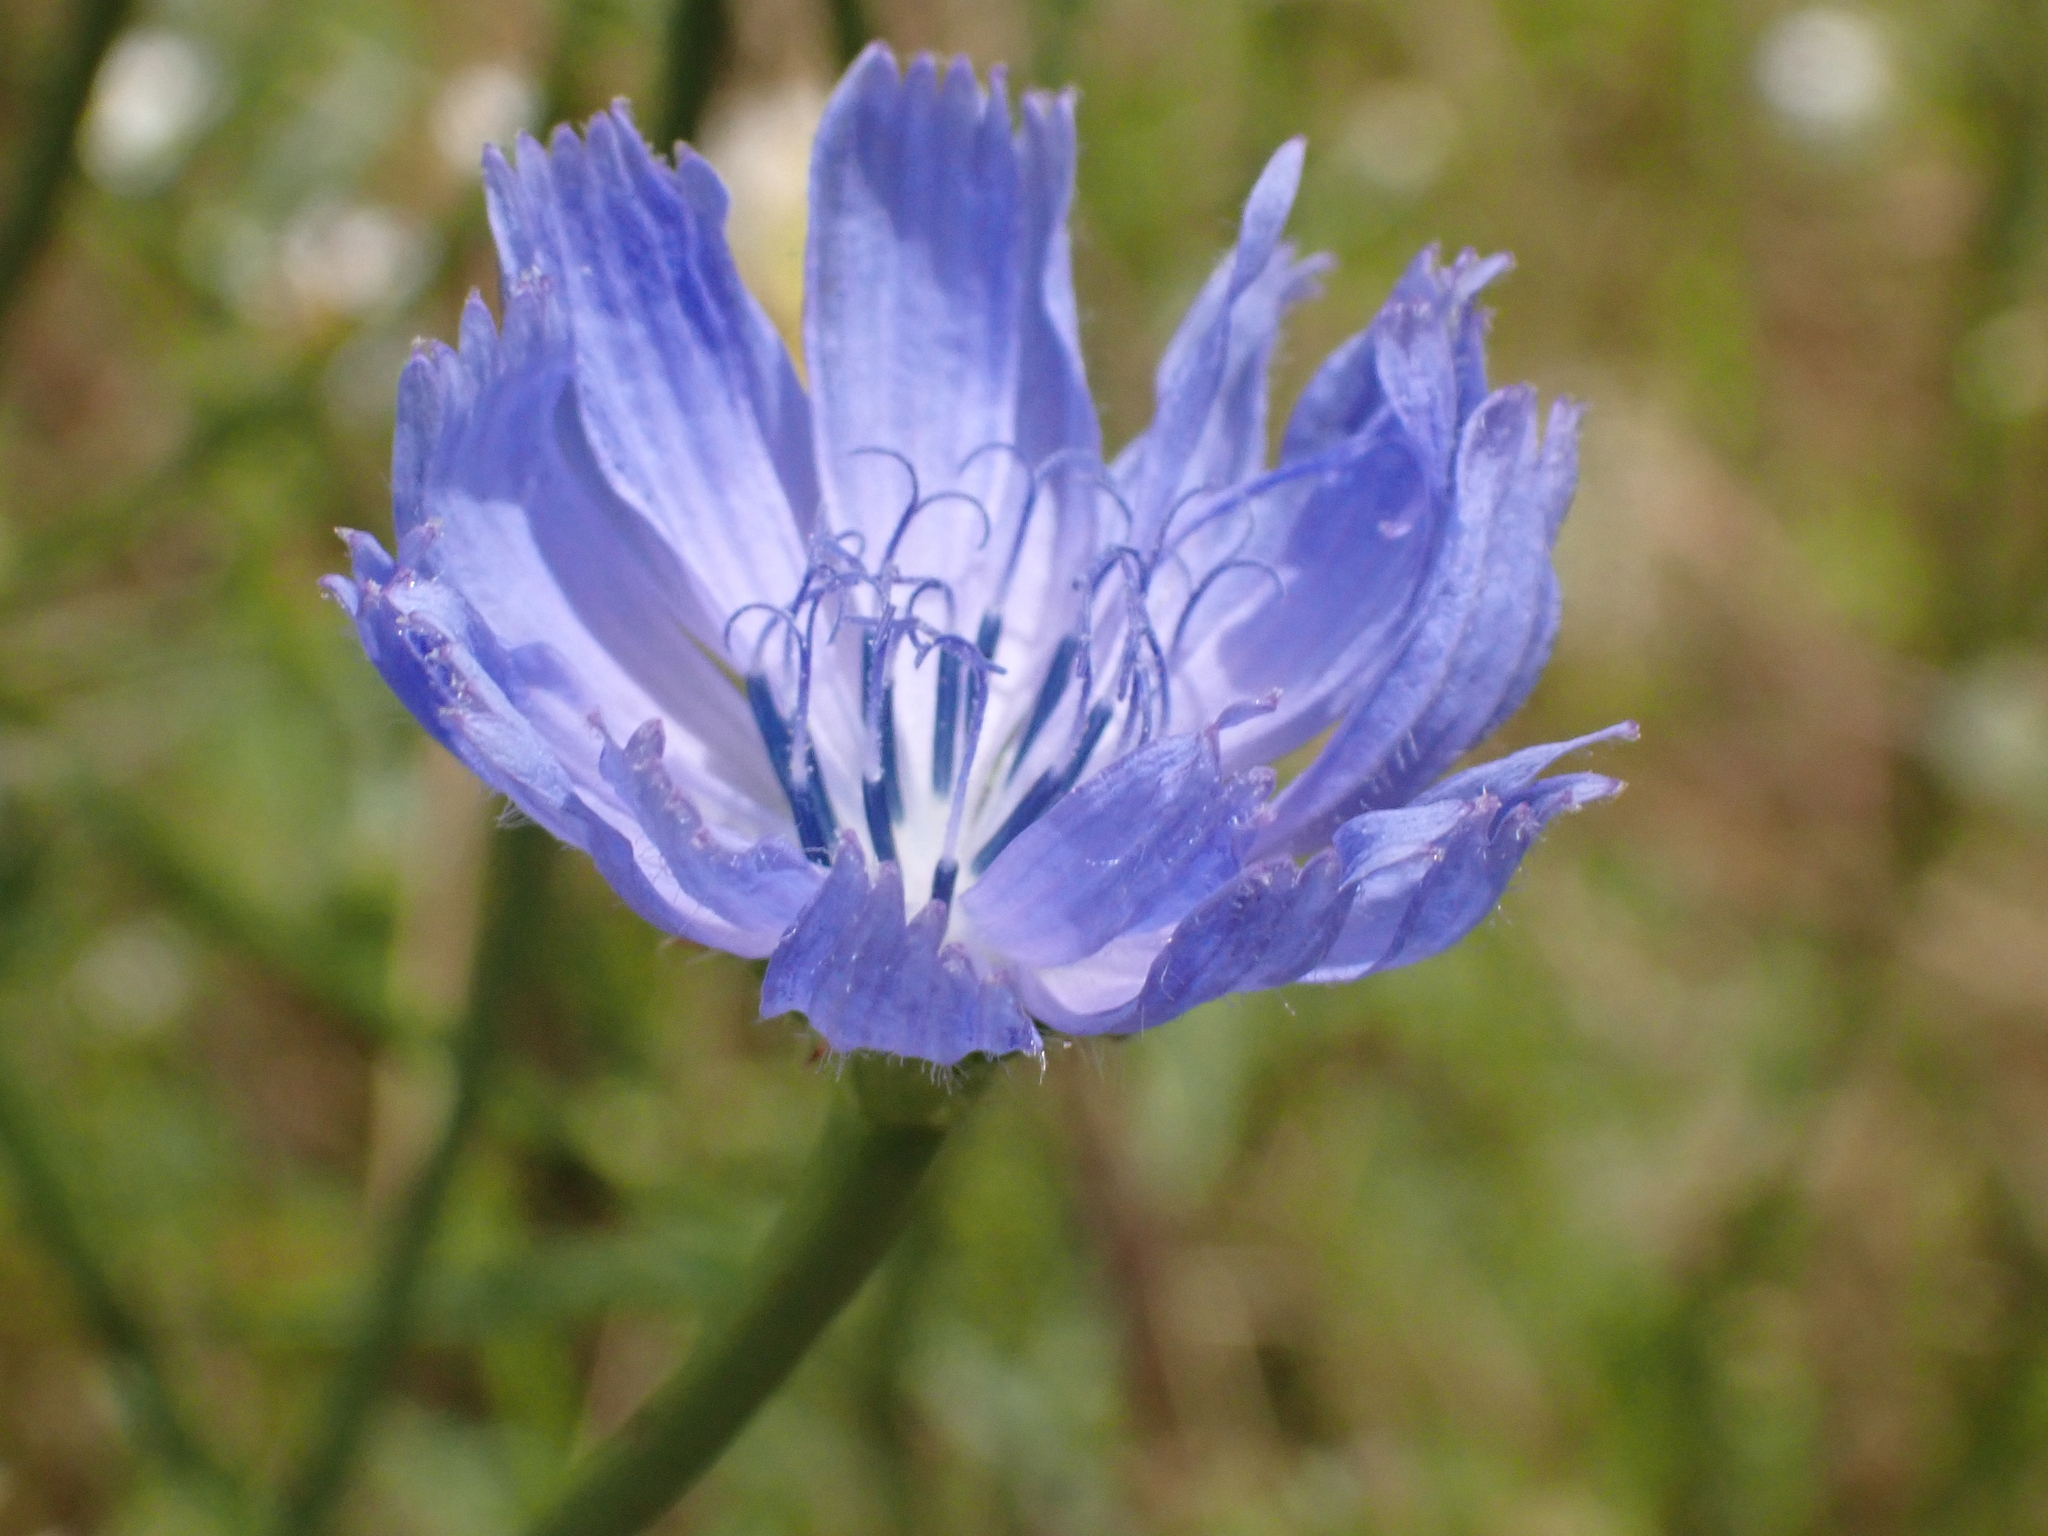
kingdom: Plantae
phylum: Tracheophyta
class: Magnoliopsida
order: Asterales
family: Asteraceae
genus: Cichorium
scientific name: Cichorium intybus
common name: Chicory
